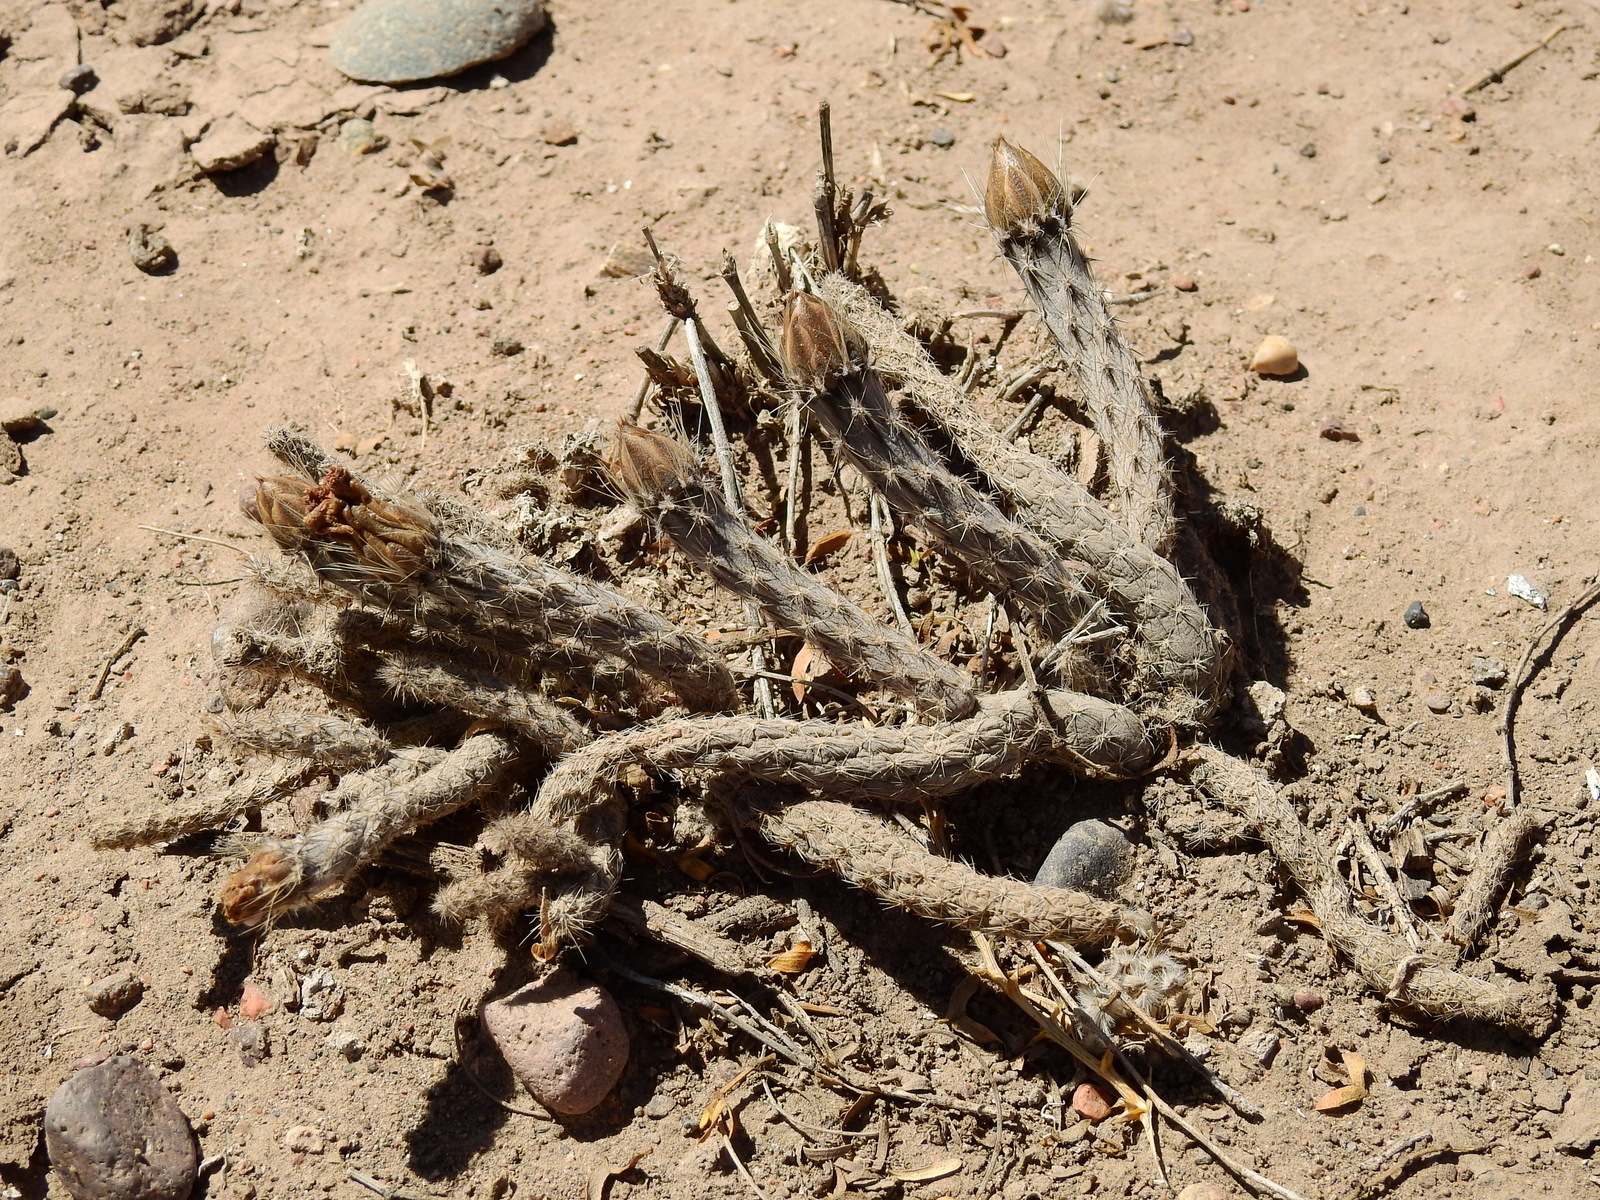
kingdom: Plantae
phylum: Tracheophyta
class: Magnoliopsida
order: Caryophyllales
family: Cactaceae
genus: Pterocactus
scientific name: Pterocactus tuberosus
